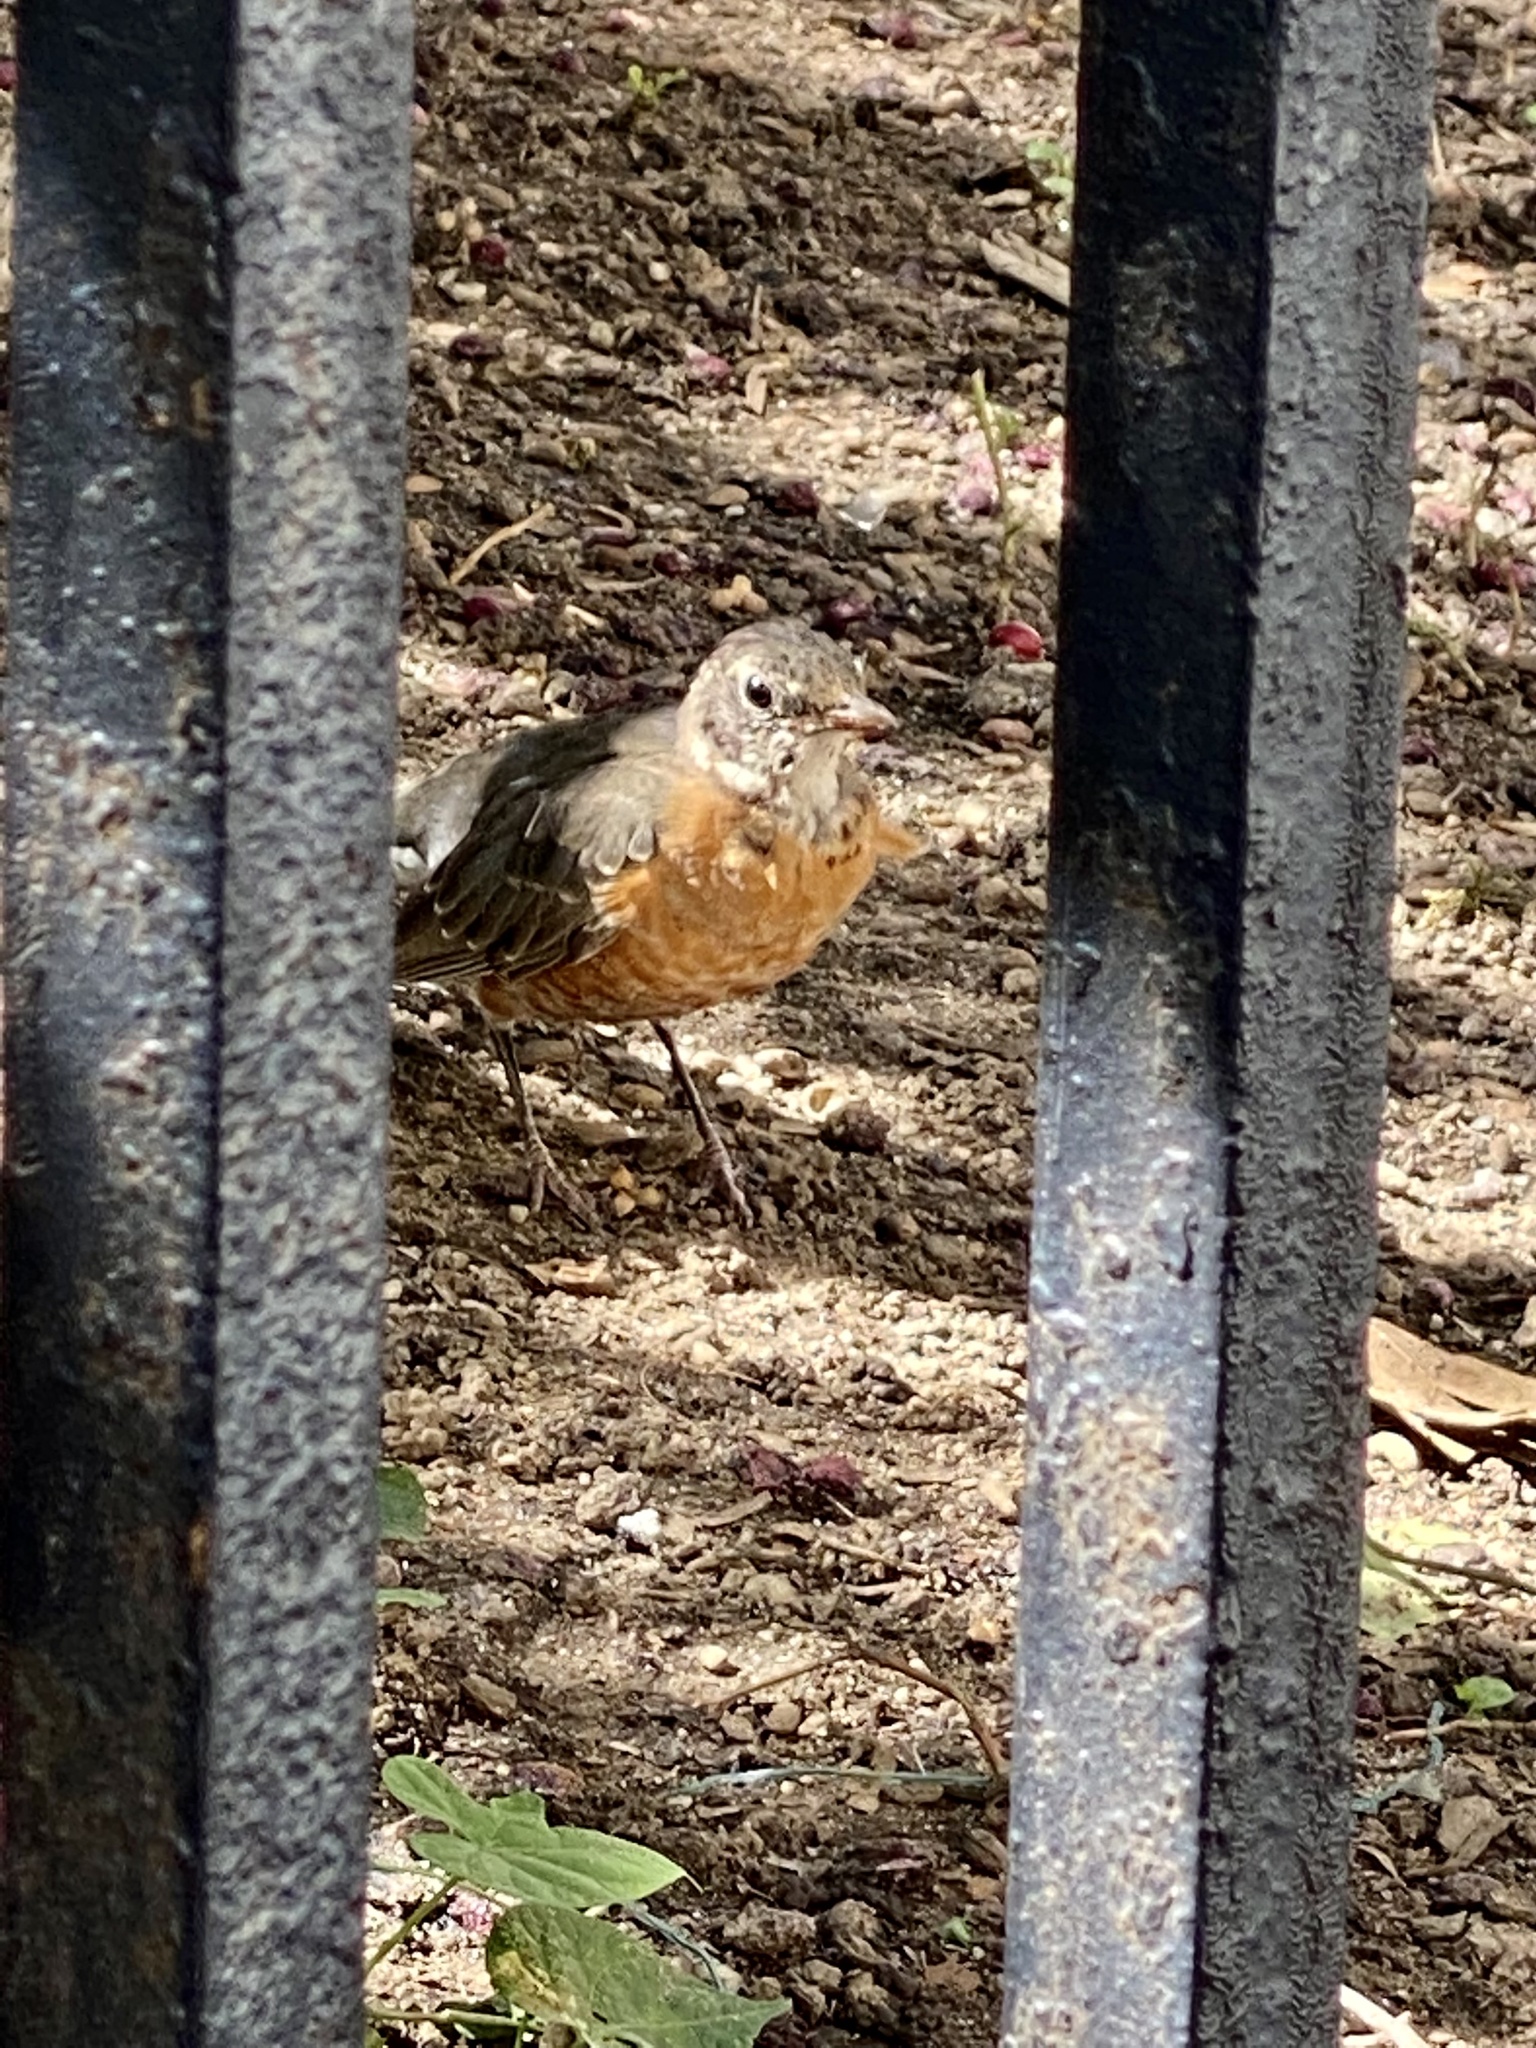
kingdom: Animalia
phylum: Chordata
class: Aves
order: Passeriformes
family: Turdidae
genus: Turdus
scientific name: Turdus migratorius
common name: American robin
